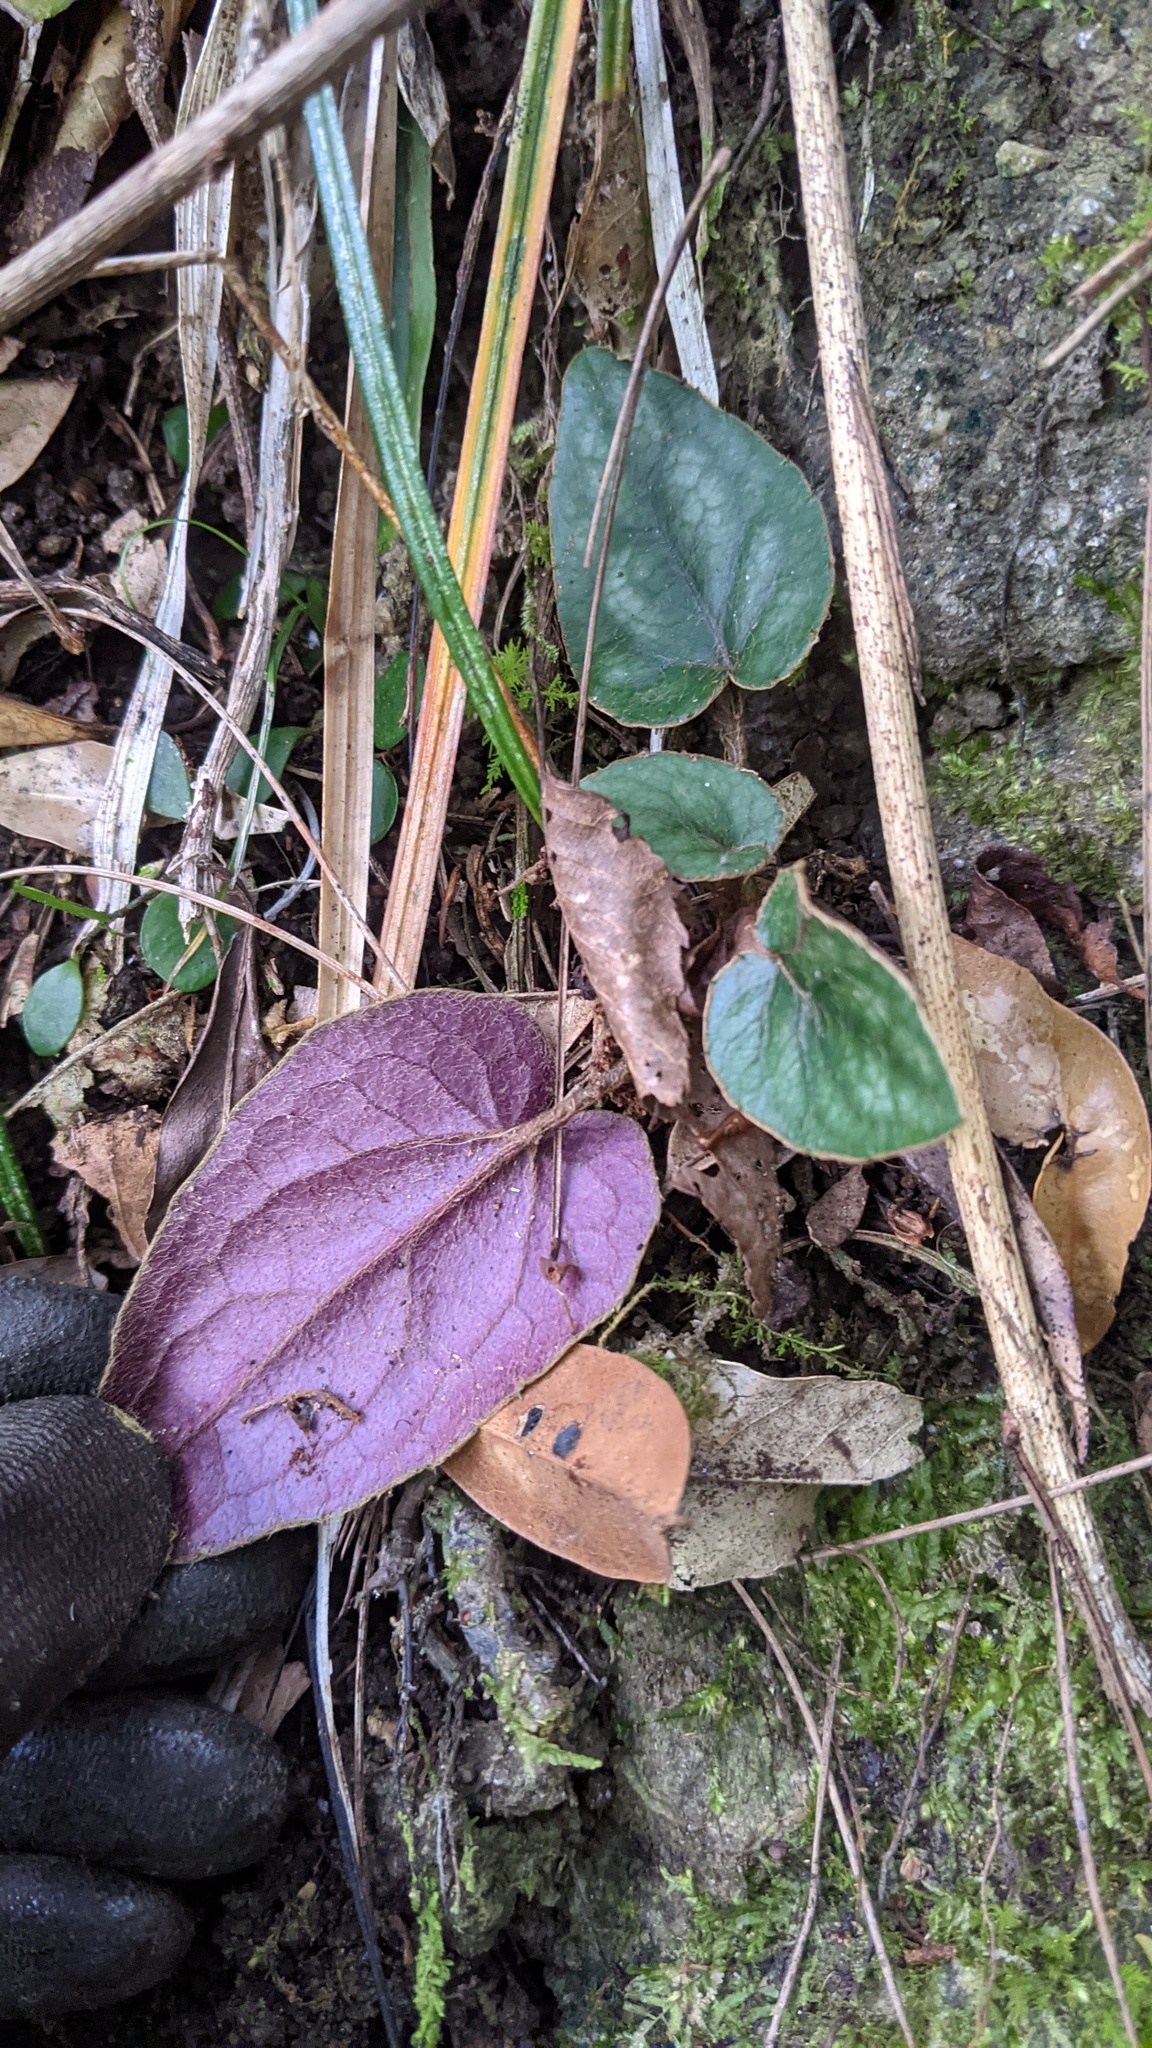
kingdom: Plantae
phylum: Tracheophyta
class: Magnoliopsida
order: Asterales
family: Asteraceae
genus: Ainsliaea
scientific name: Ainsliaea fragrans
